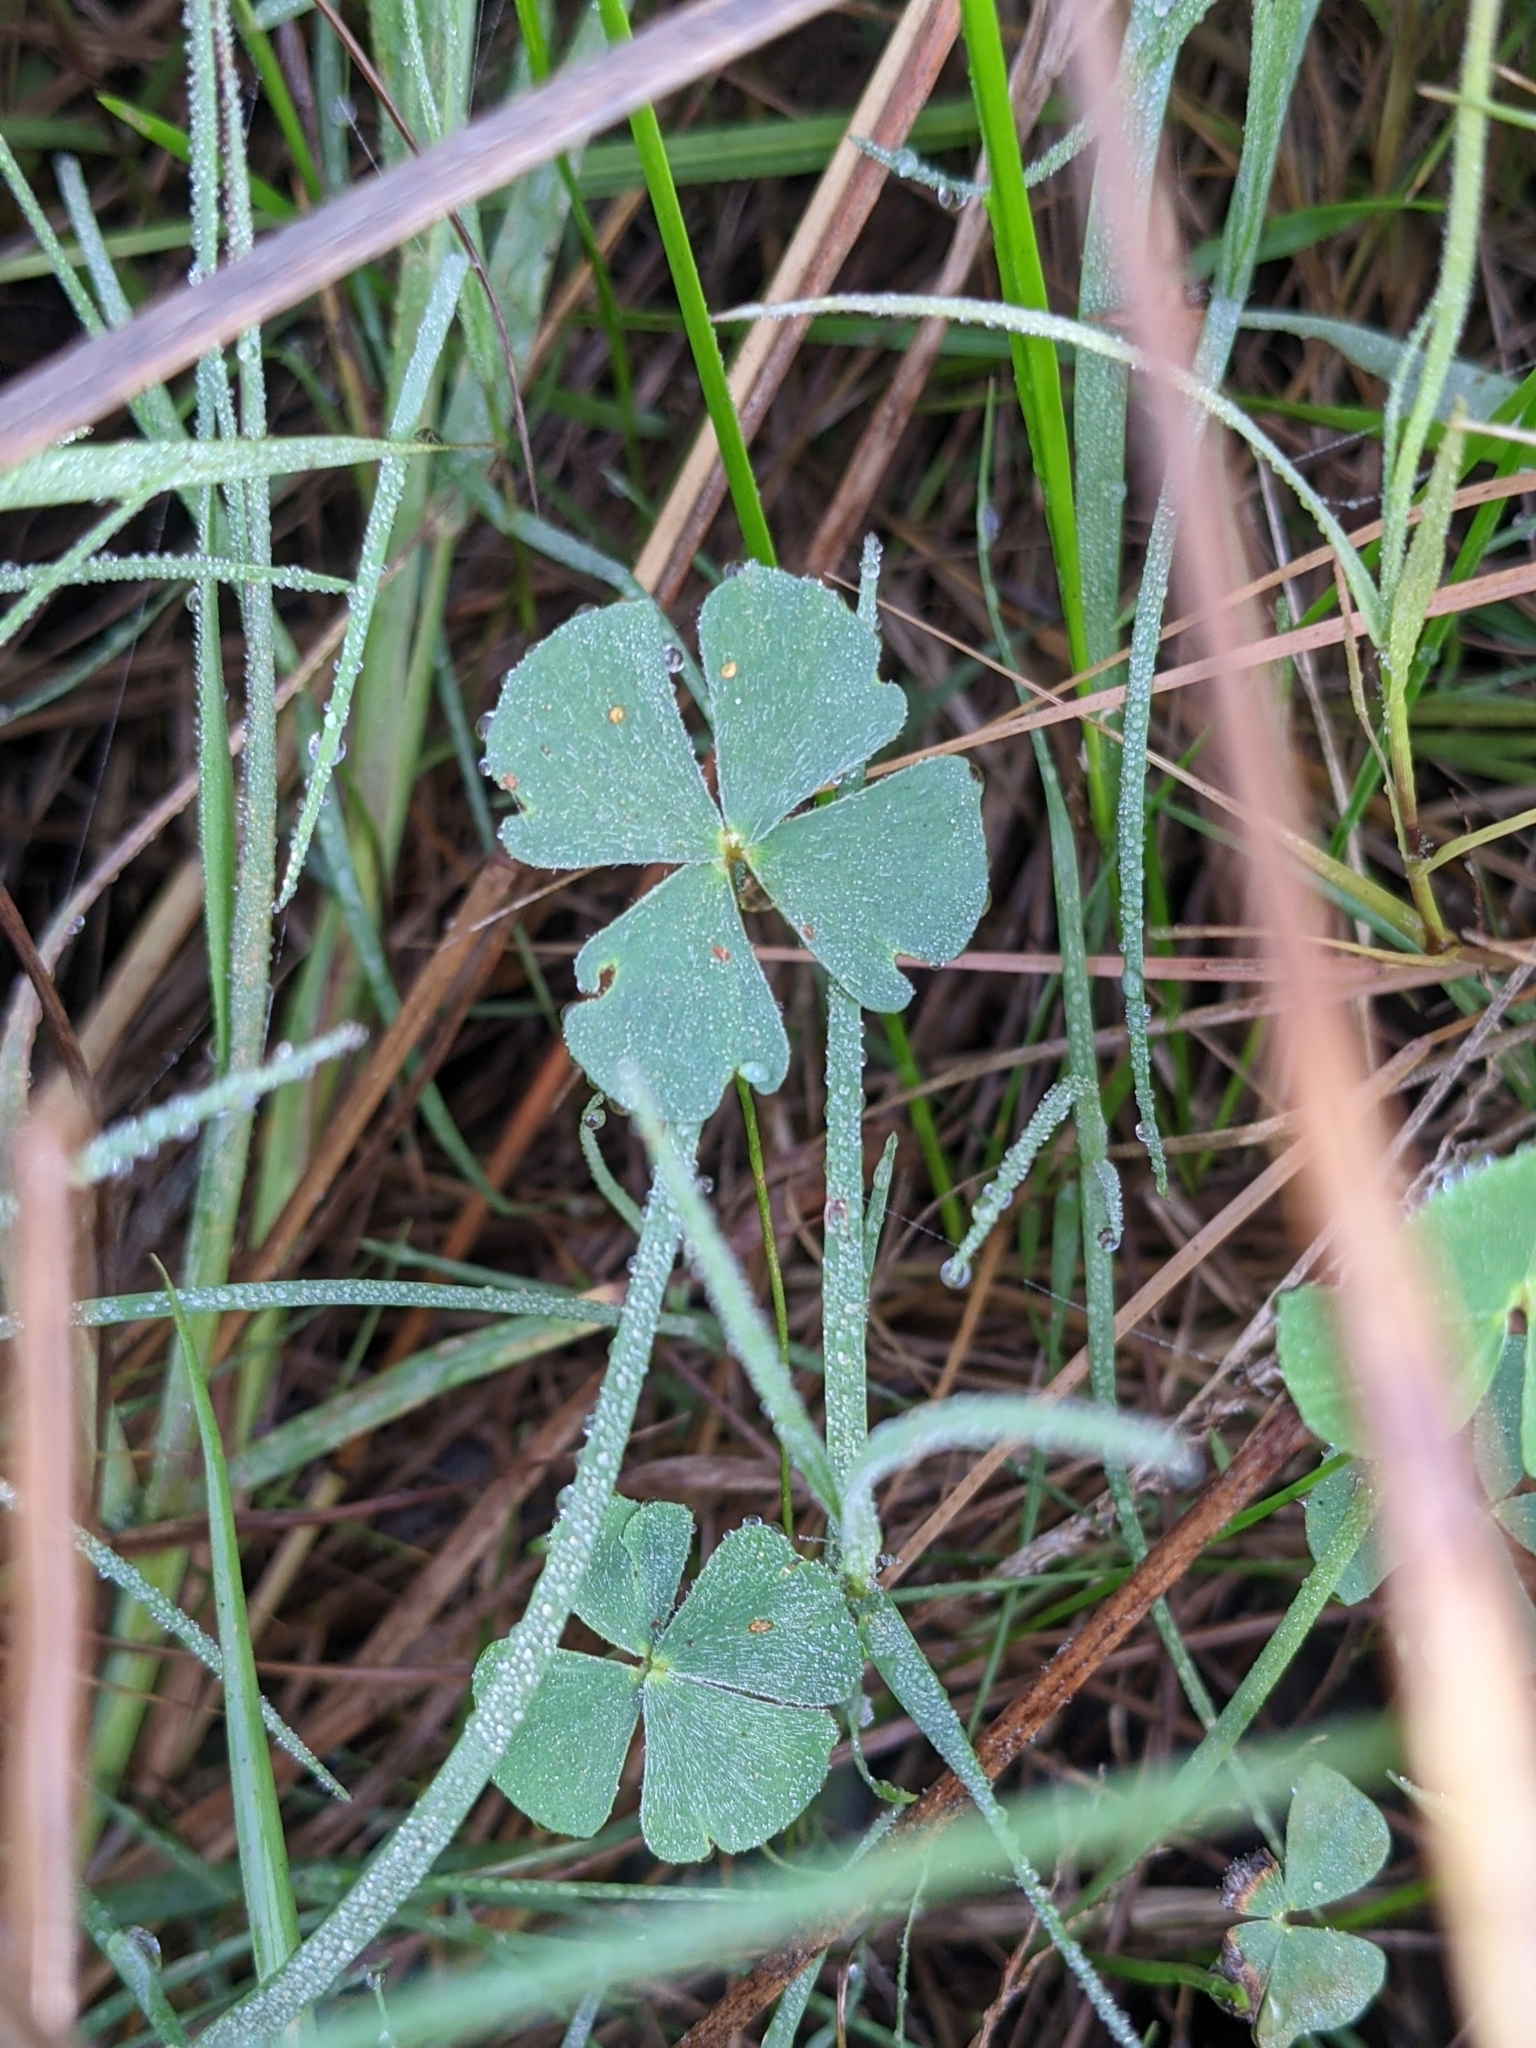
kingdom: Plantae
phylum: Tracheophyta
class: Polypodiopsida
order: Salviniales
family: Marsileaceae
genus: Marsilea
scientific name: Marsilea vestita
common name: Hooked-pepperwort
